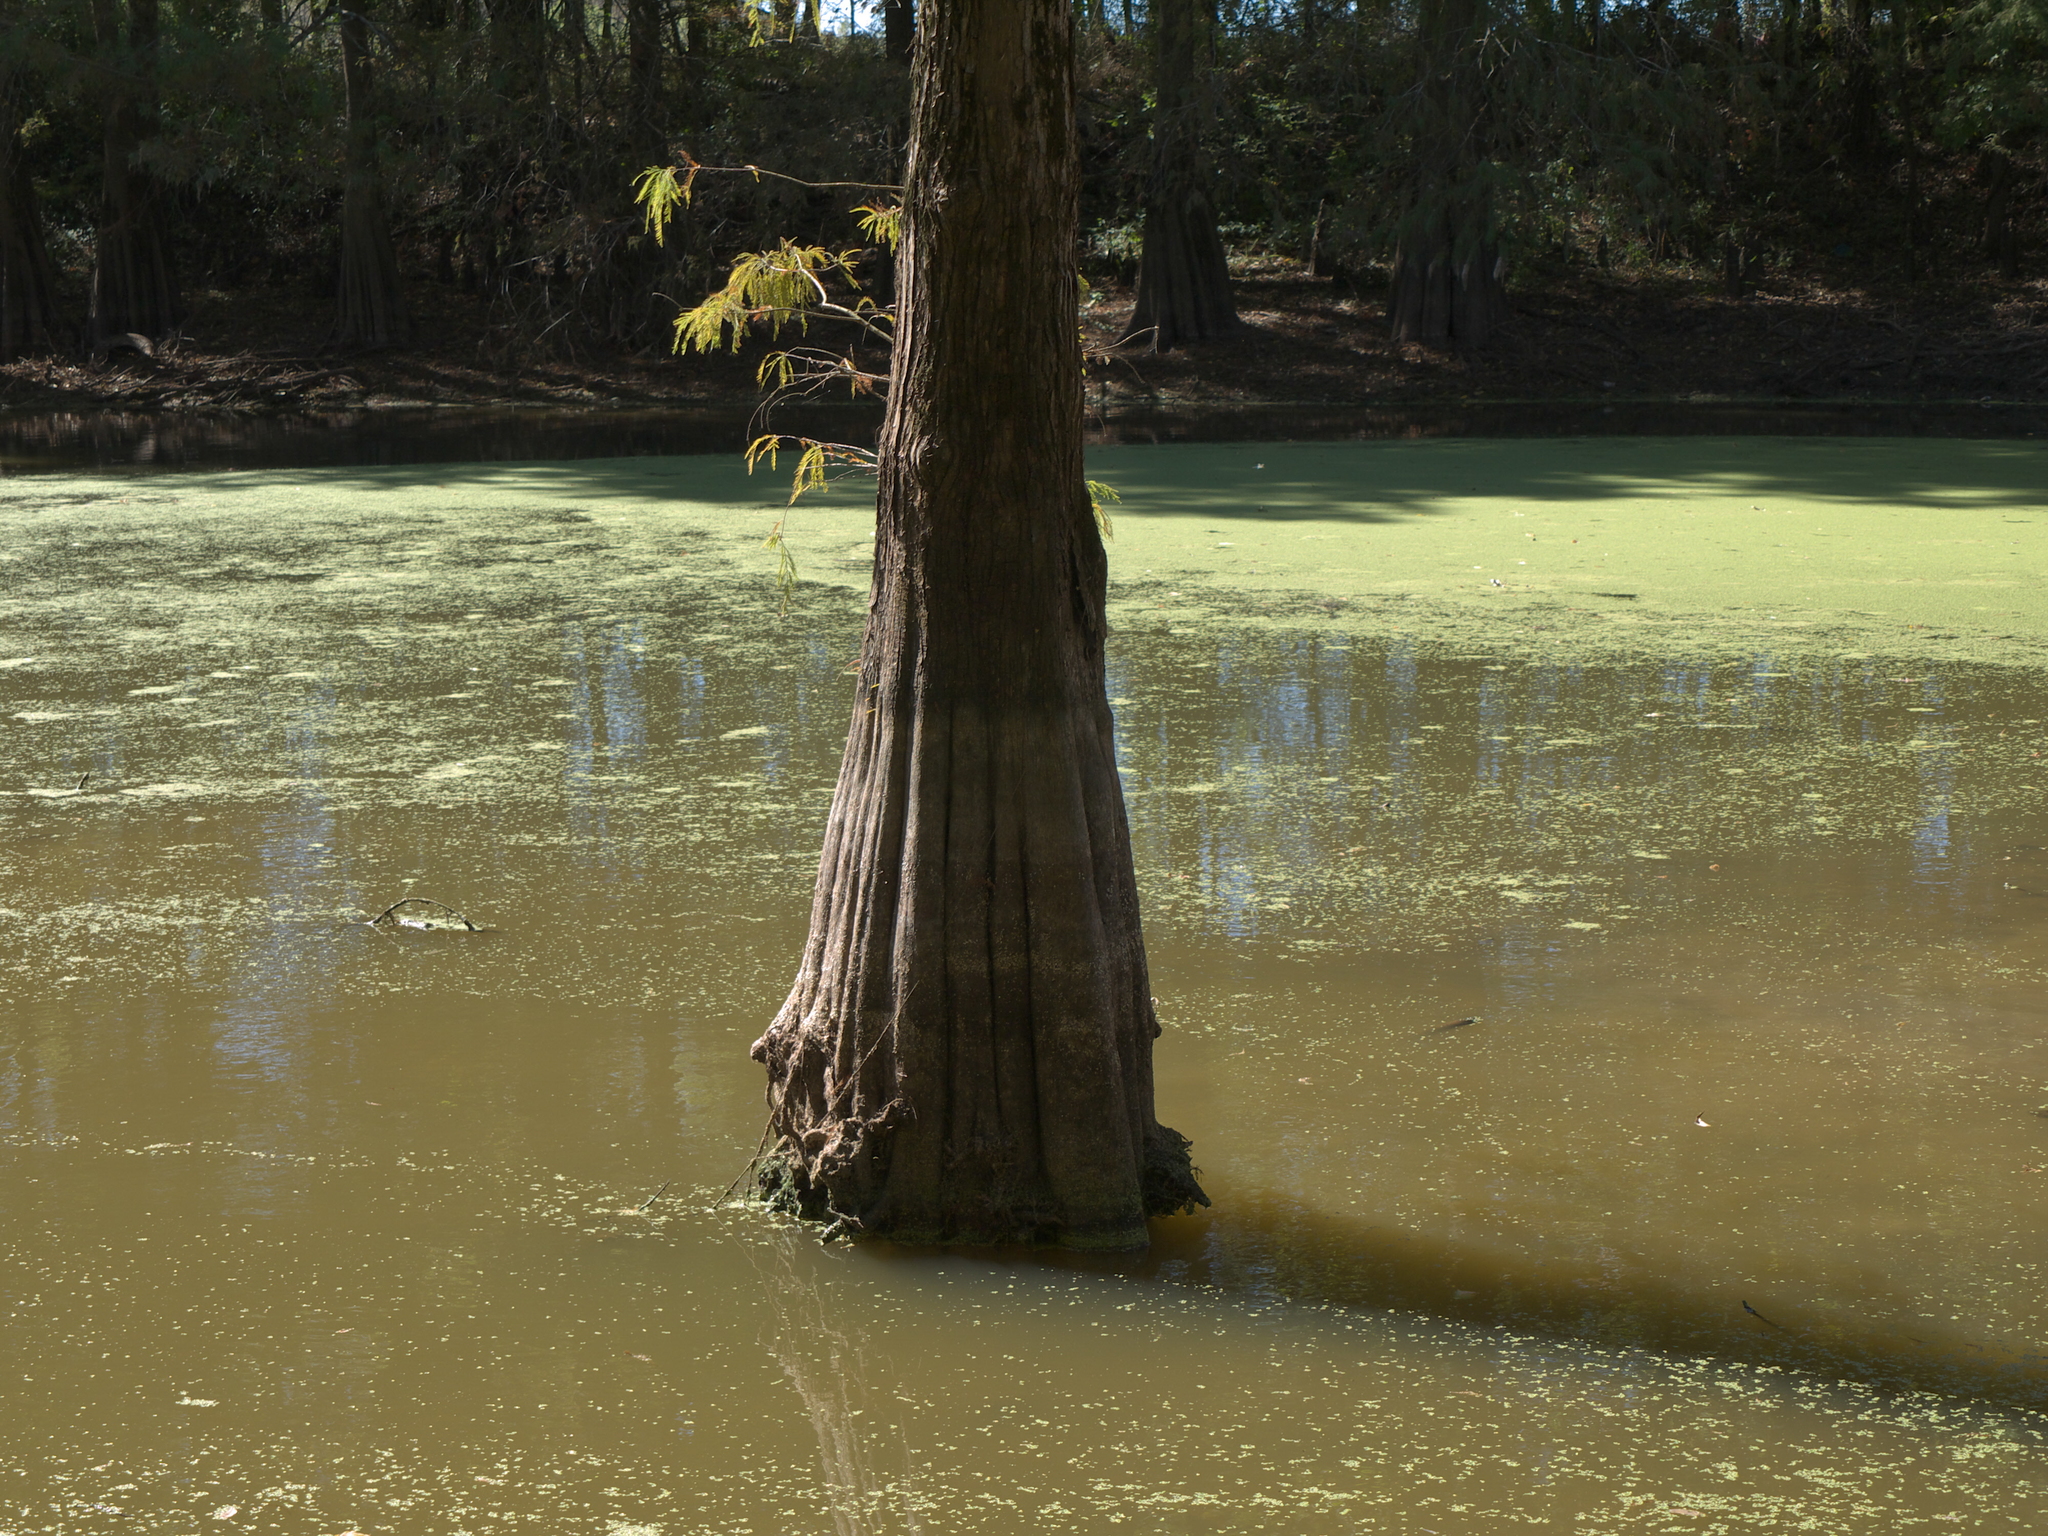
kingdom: Plantae
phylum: Tracheophyta
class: Pinopsida
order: Pinales
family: Cupressaceae
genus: Taxodium
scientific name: Taxodium distichum
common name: Bald cypress
